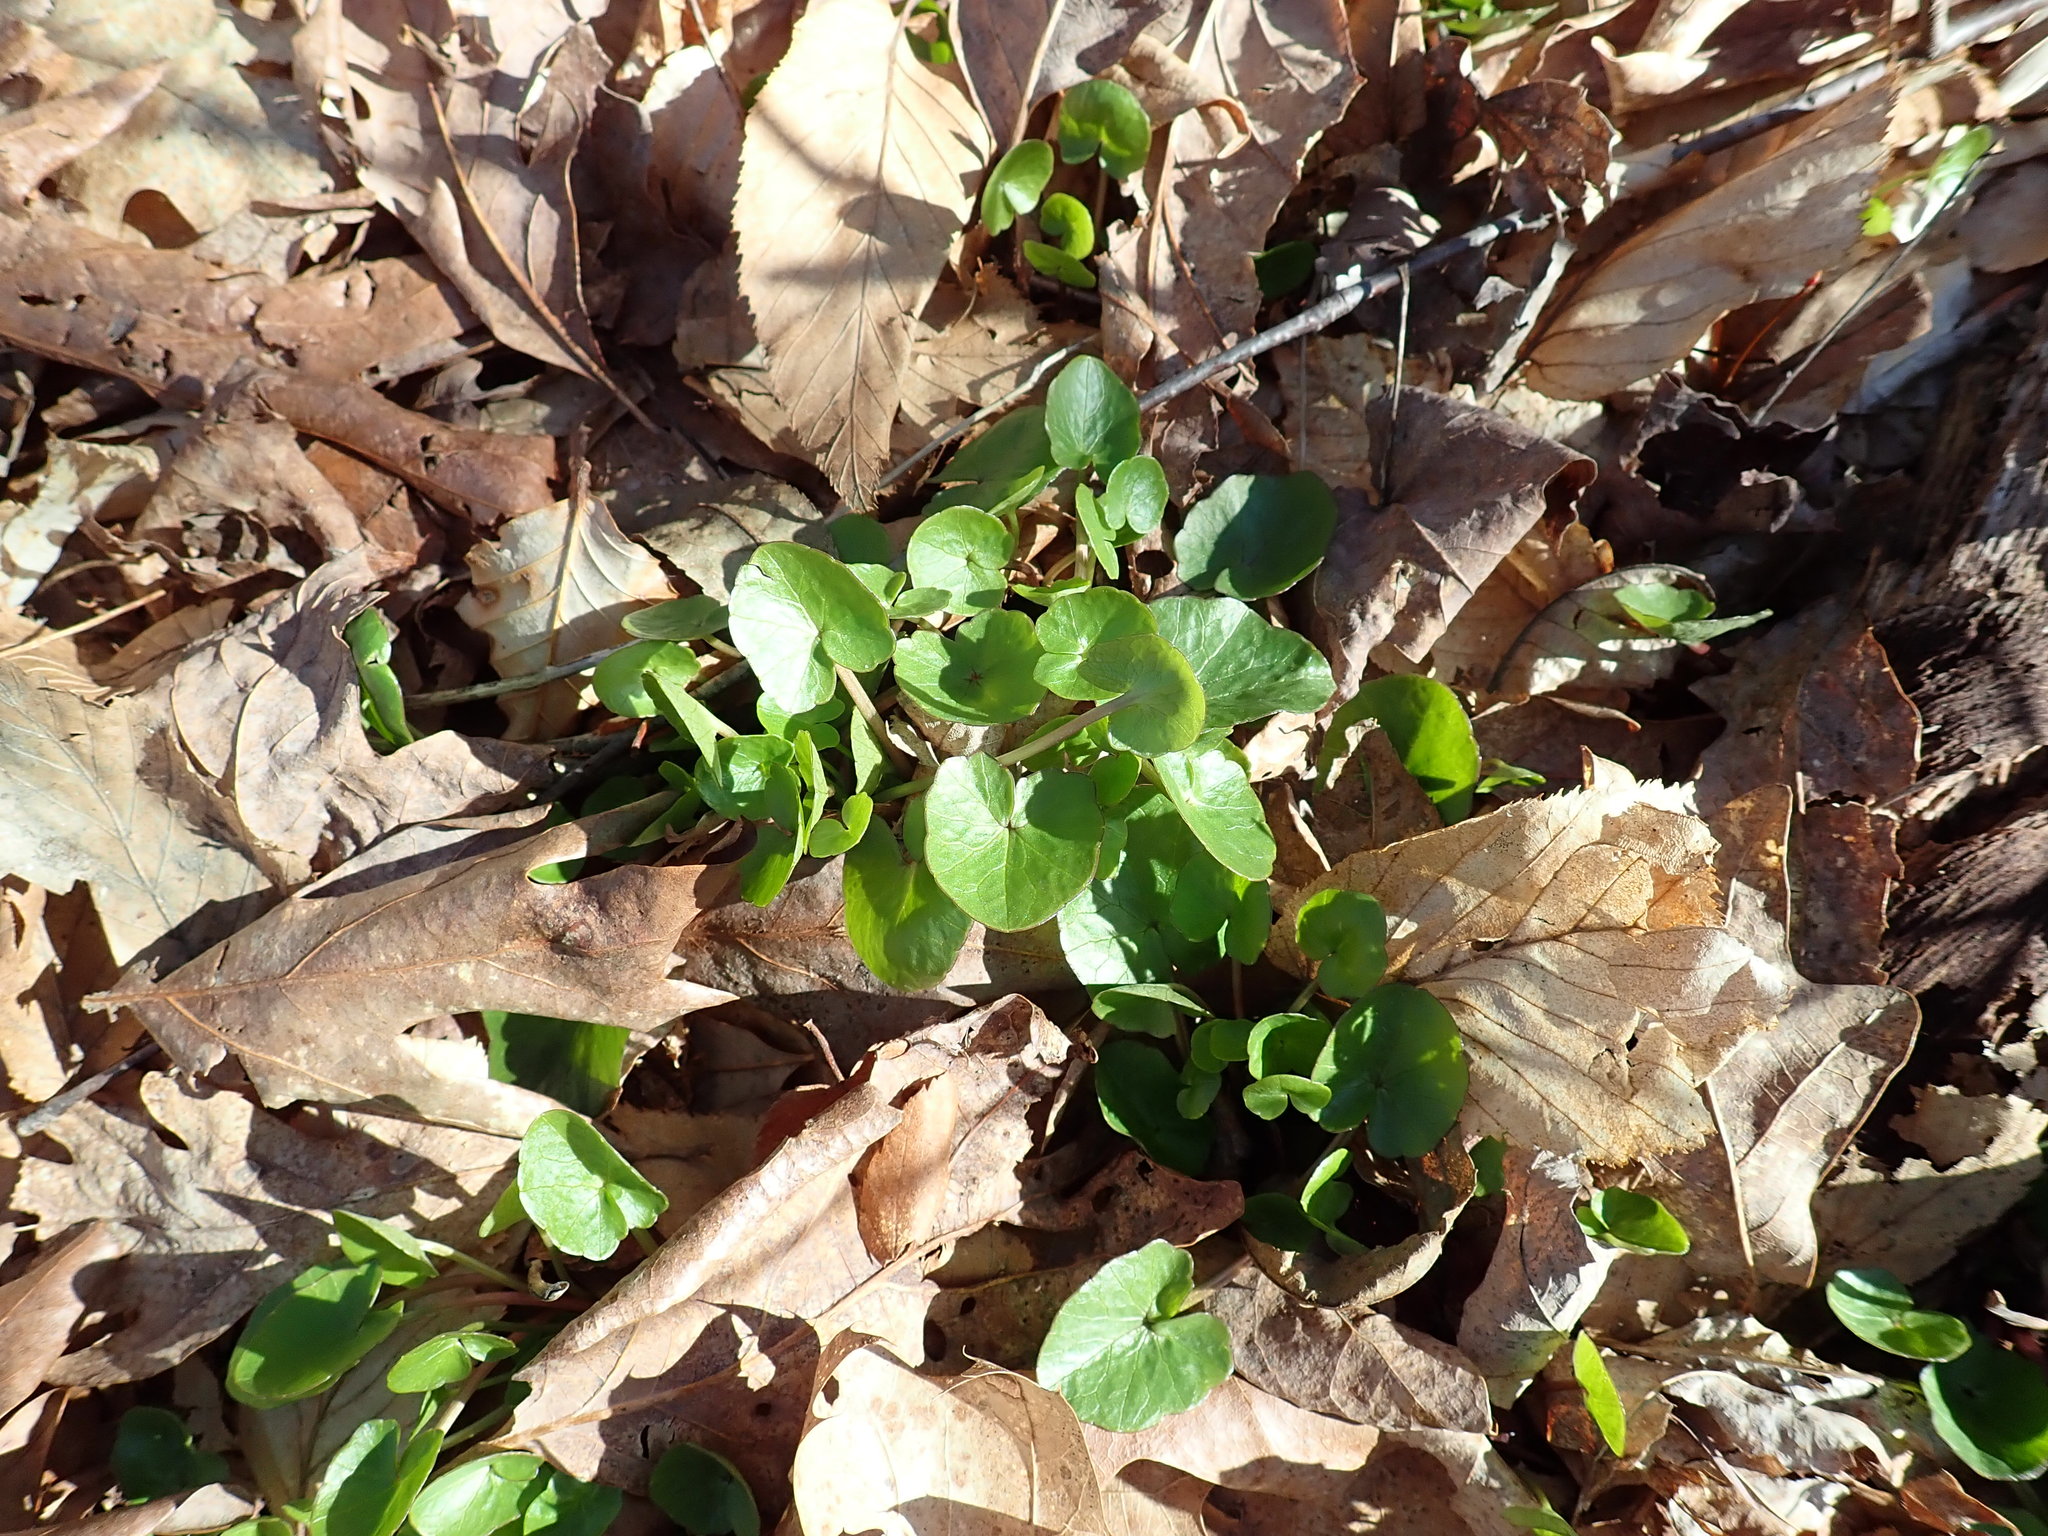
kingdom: Plantae
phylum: Tracheophyta
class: Magnoliopsida
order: Ranunculales
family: Ranunculaceae
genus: Ficaria
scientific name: Ficaria verna
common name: Lesser celandine
